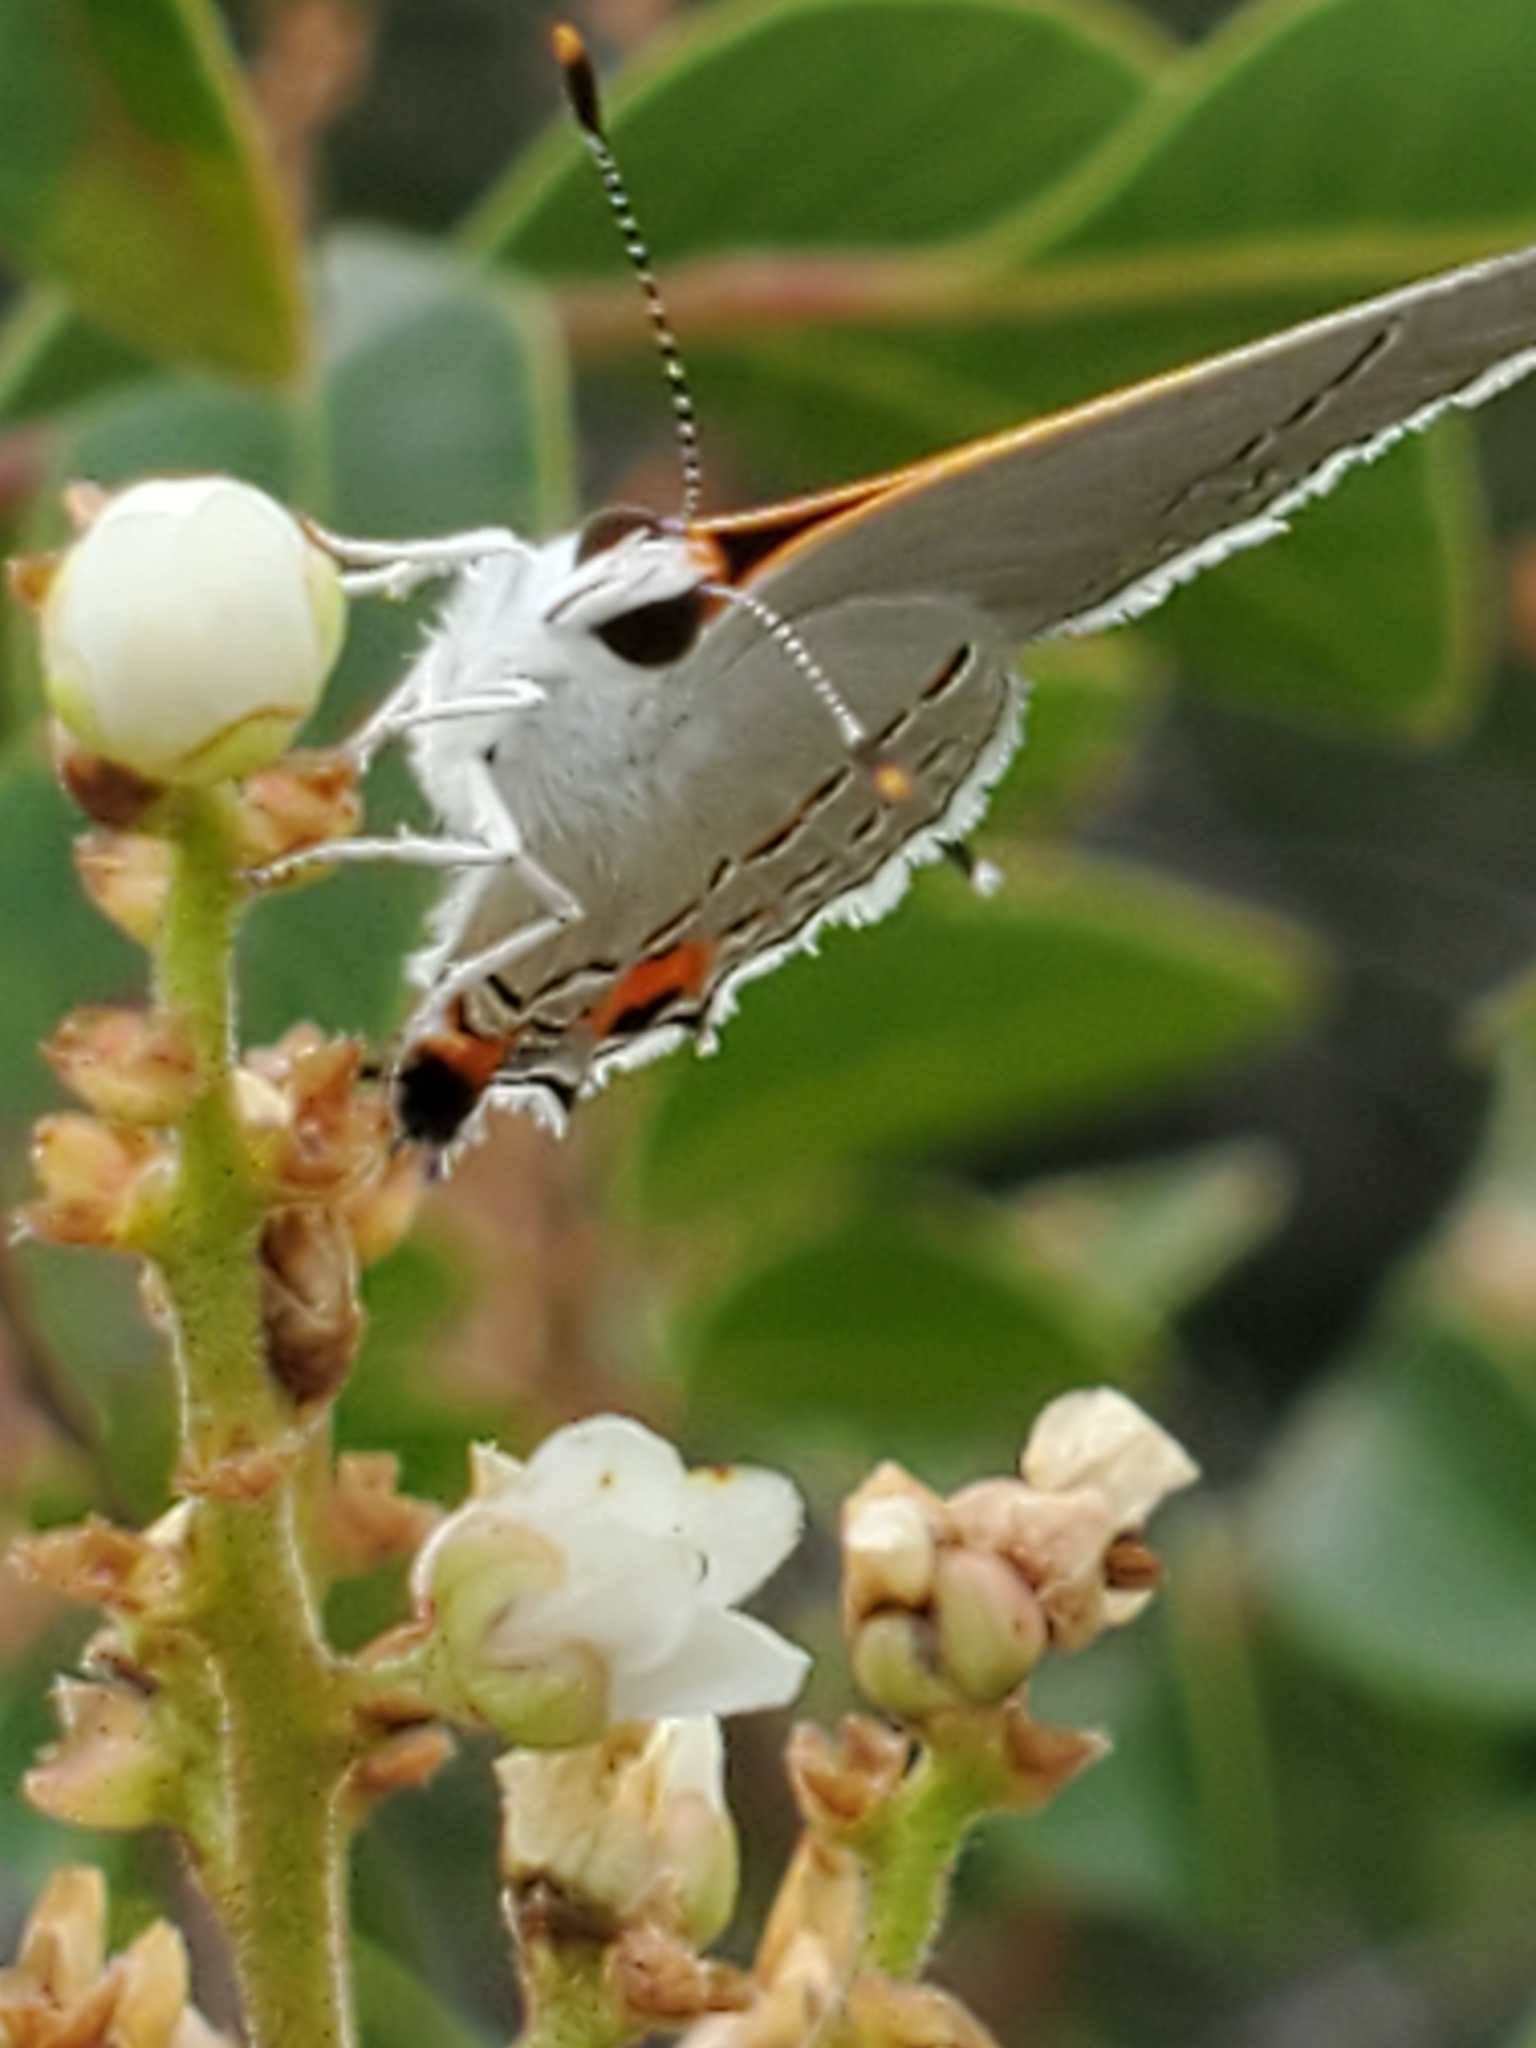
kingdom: Animalia
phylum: Arthropoda
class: Insecta
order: Lepidoptera
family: Lycaenidae
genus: Strymon
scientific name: Strymon melinus
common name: Gray hairstreak
